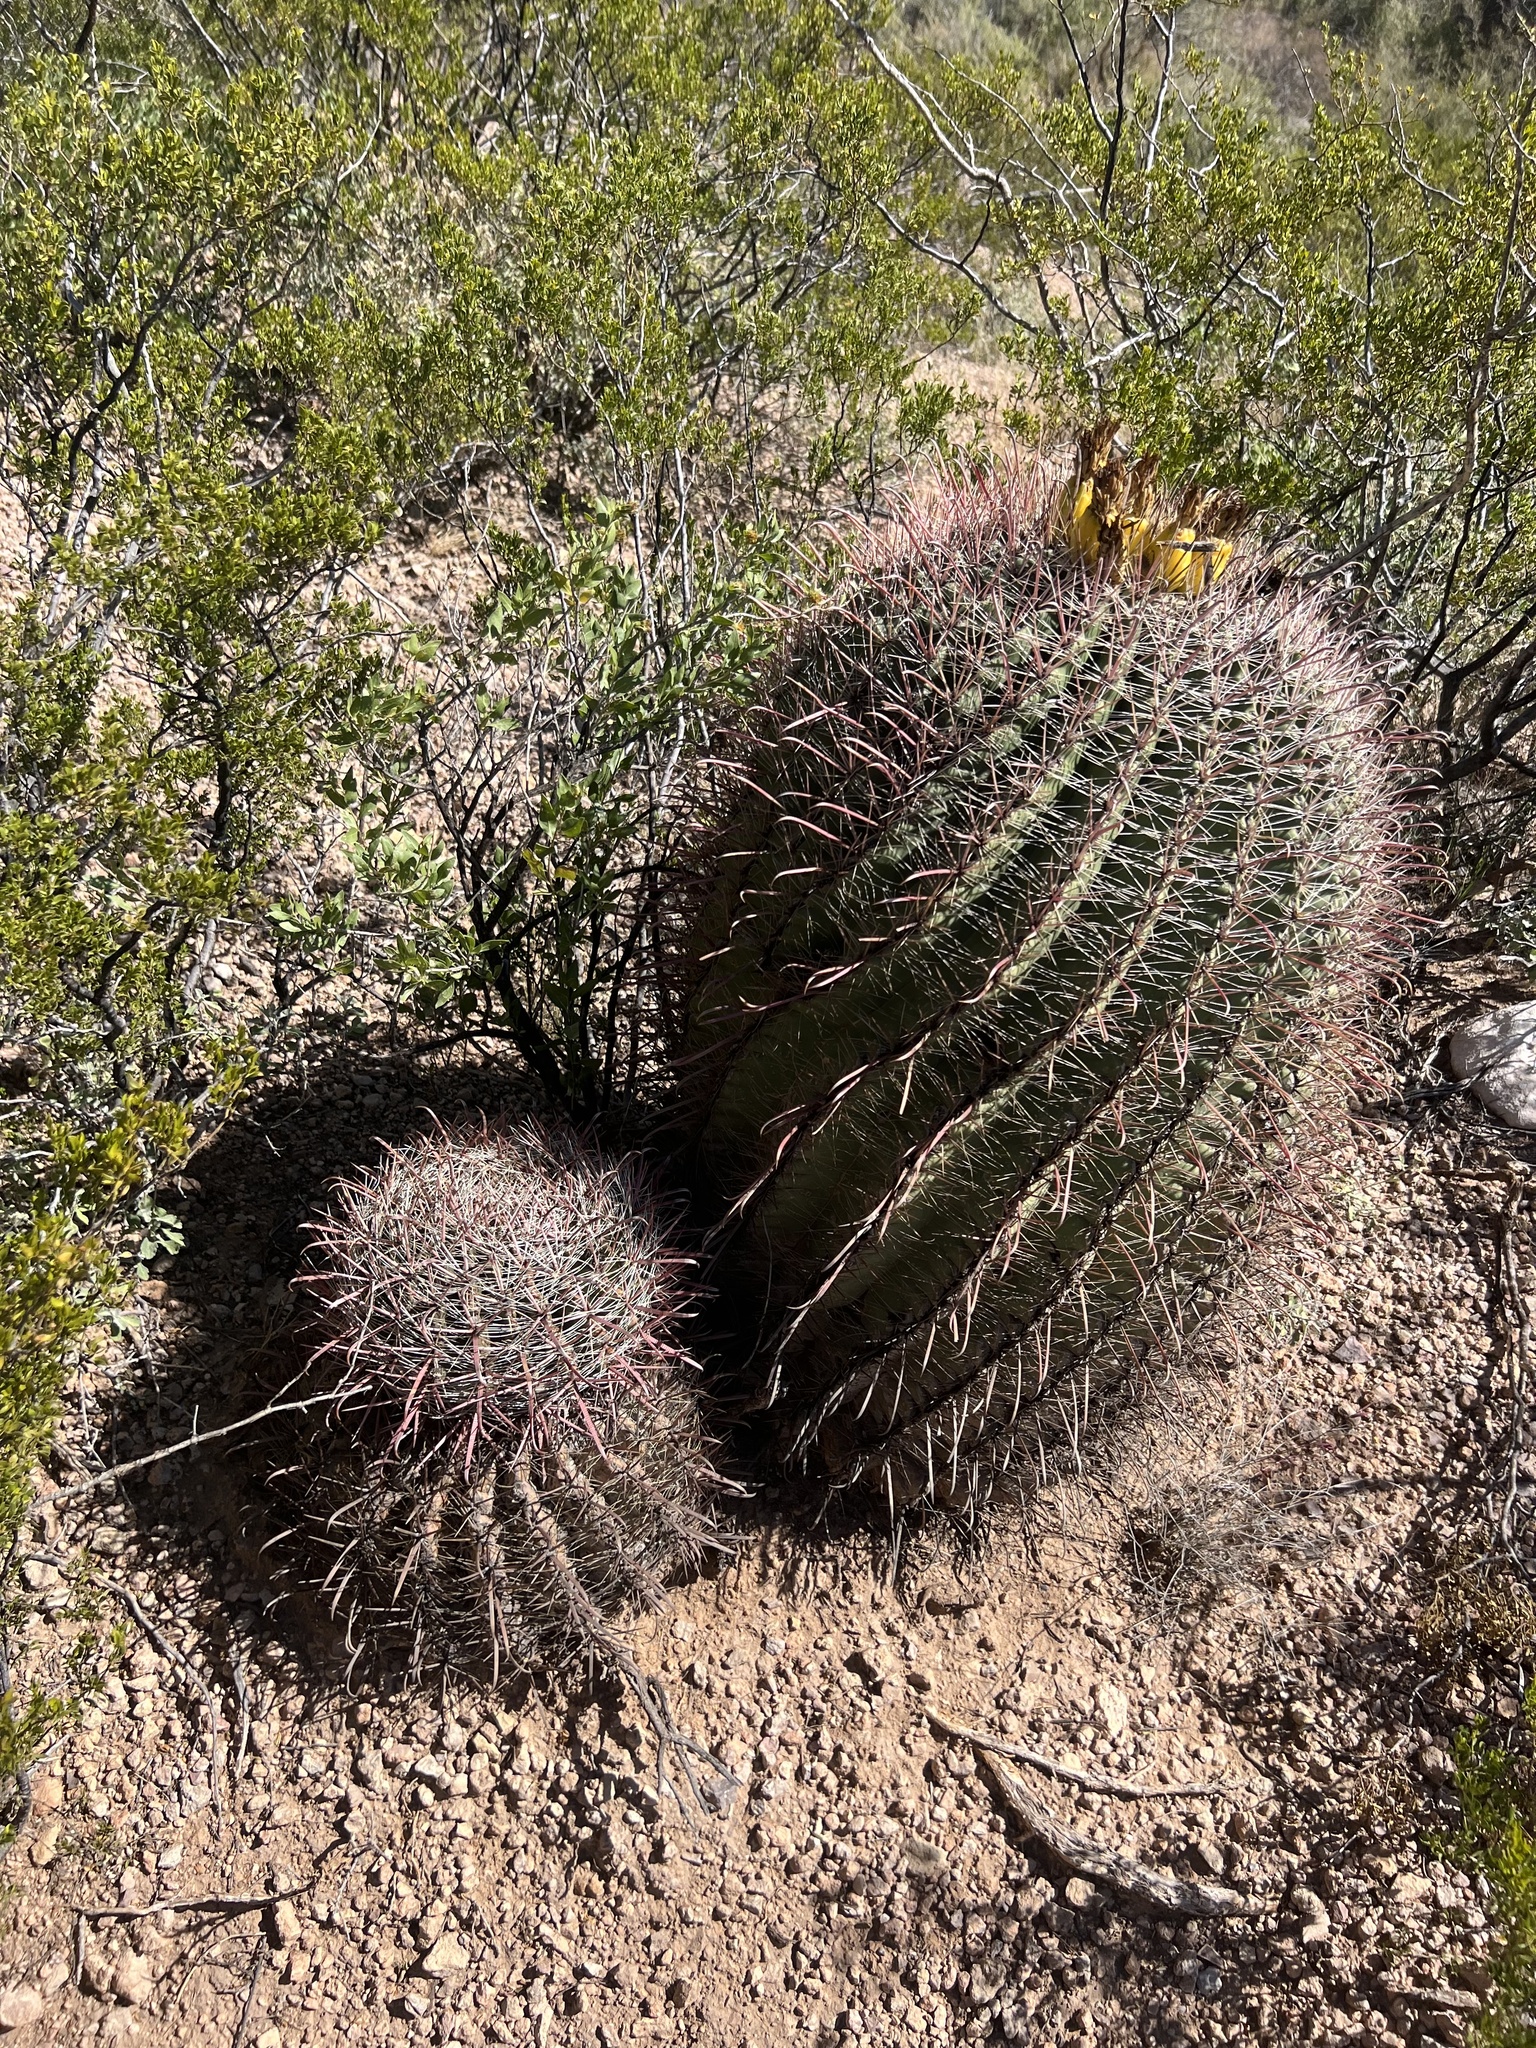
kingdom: Plantae
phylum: Tracheophyta
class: Magnoliopsida
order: Caryophyllales
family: Cactaceae
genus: Ferocactus
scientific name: Ferocactus wislizeni
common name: Candy barrel cactus
